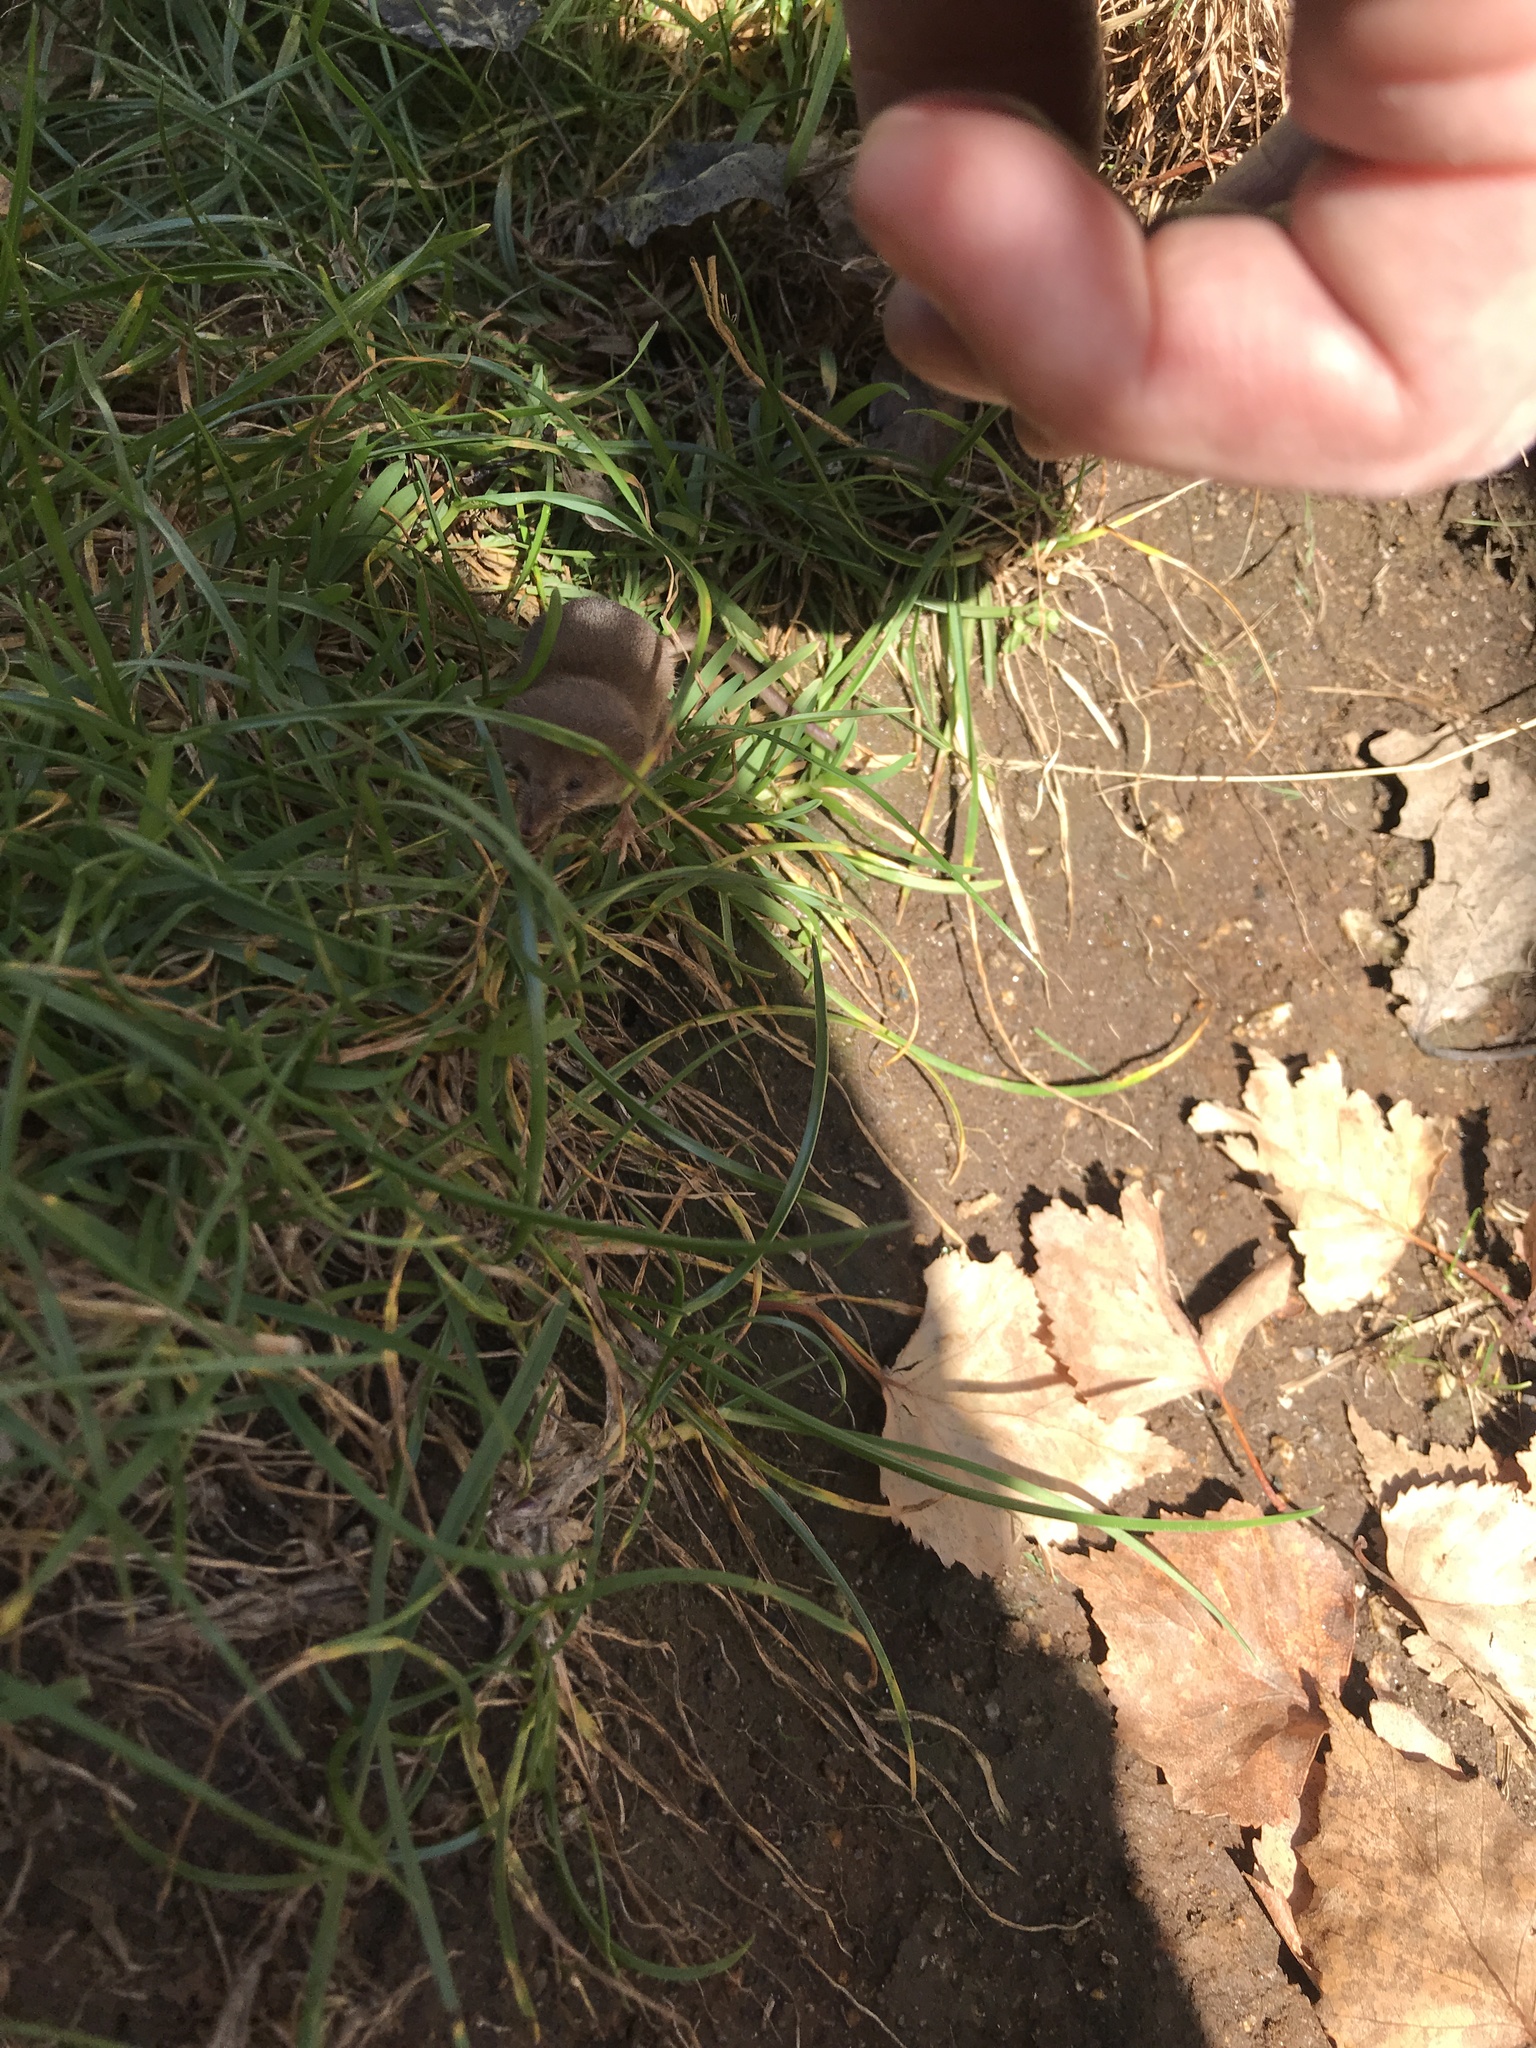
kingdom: Animalia
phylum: Chordata
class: Mammalia
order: Soricomorpha
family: Soricidae
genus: Sorex
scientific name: Sorex minutus
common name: Eurasian pygmy shrew
